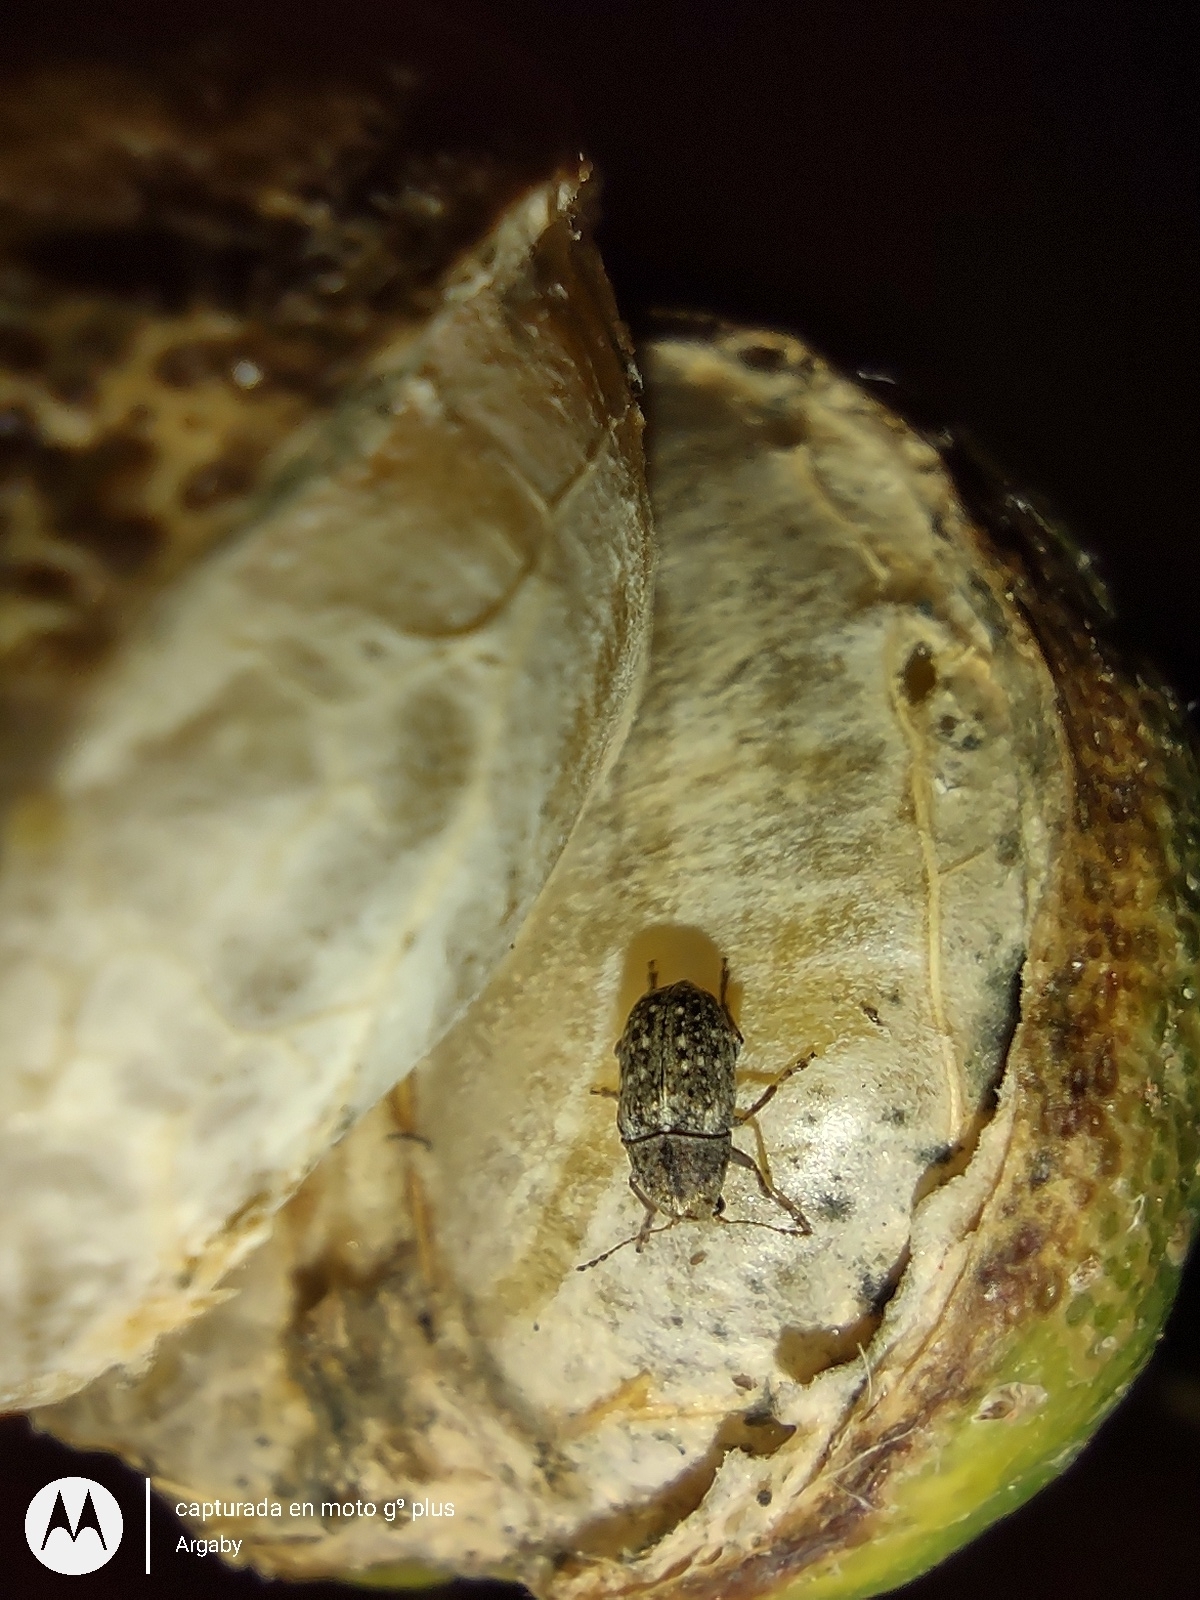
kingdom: Animalia
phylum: Arthropoda
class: Insecta
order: Coleoptera
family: Anthribidae
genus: Araecerus
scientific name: Araecerus fasciculatus
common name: Coffee bean weevil
